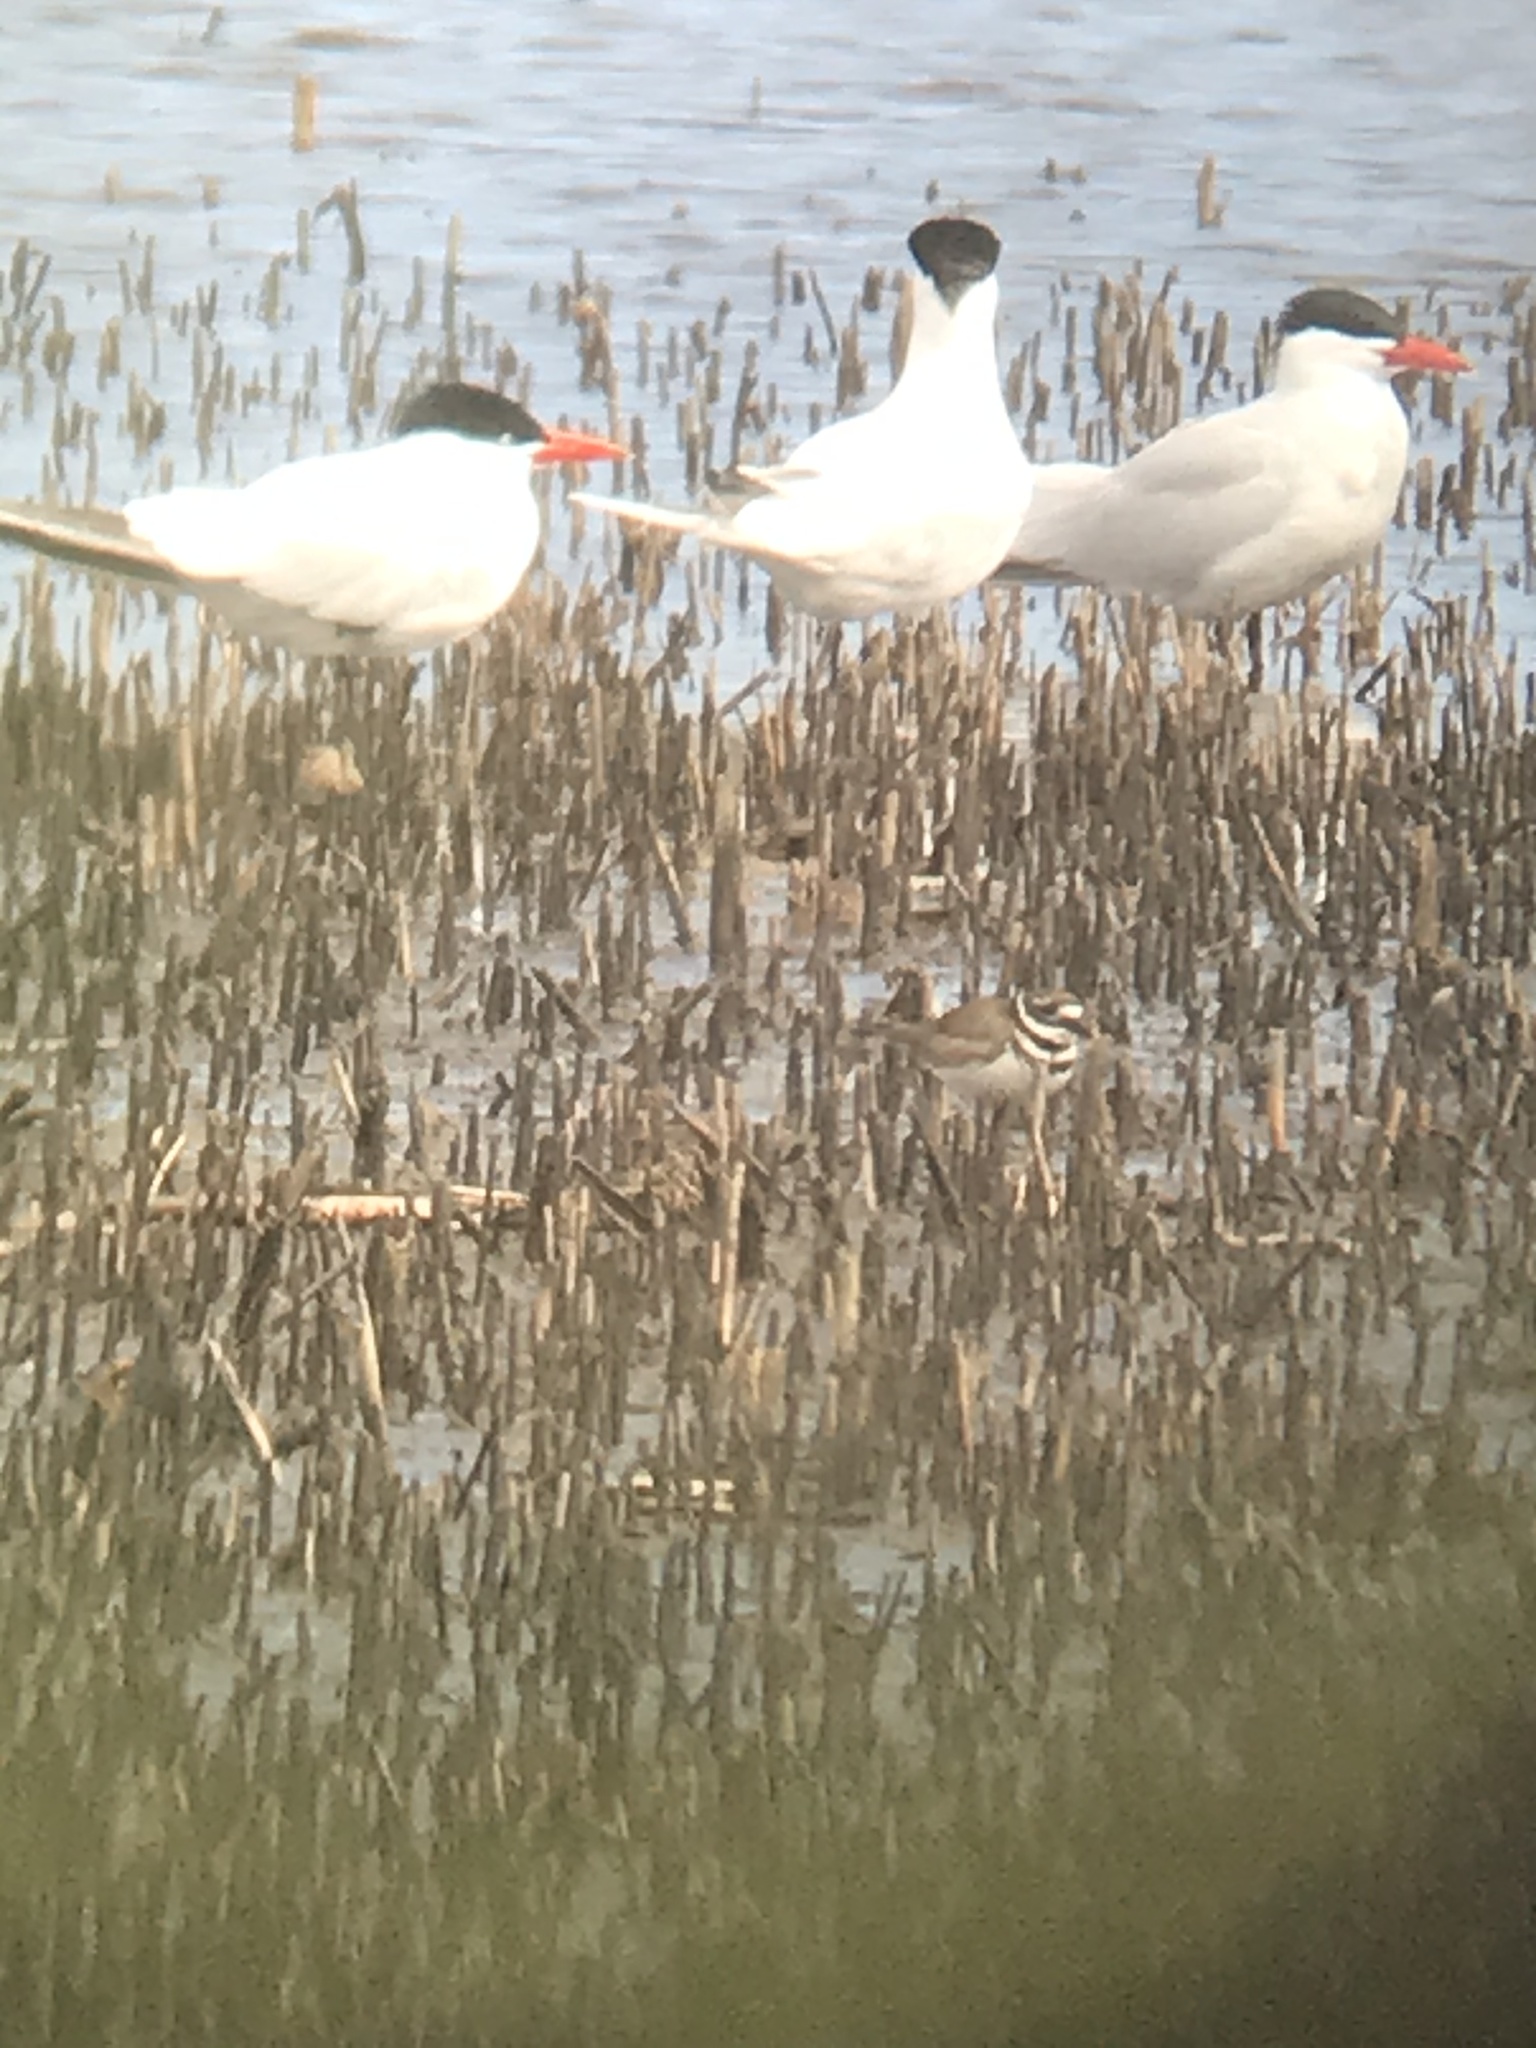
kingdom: Animalia
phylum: Chordata
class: Aves
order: Charadriiformes
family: Laridae
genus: Hydroprogne
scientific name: Hydroprogne caspia
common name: Caspian tern
